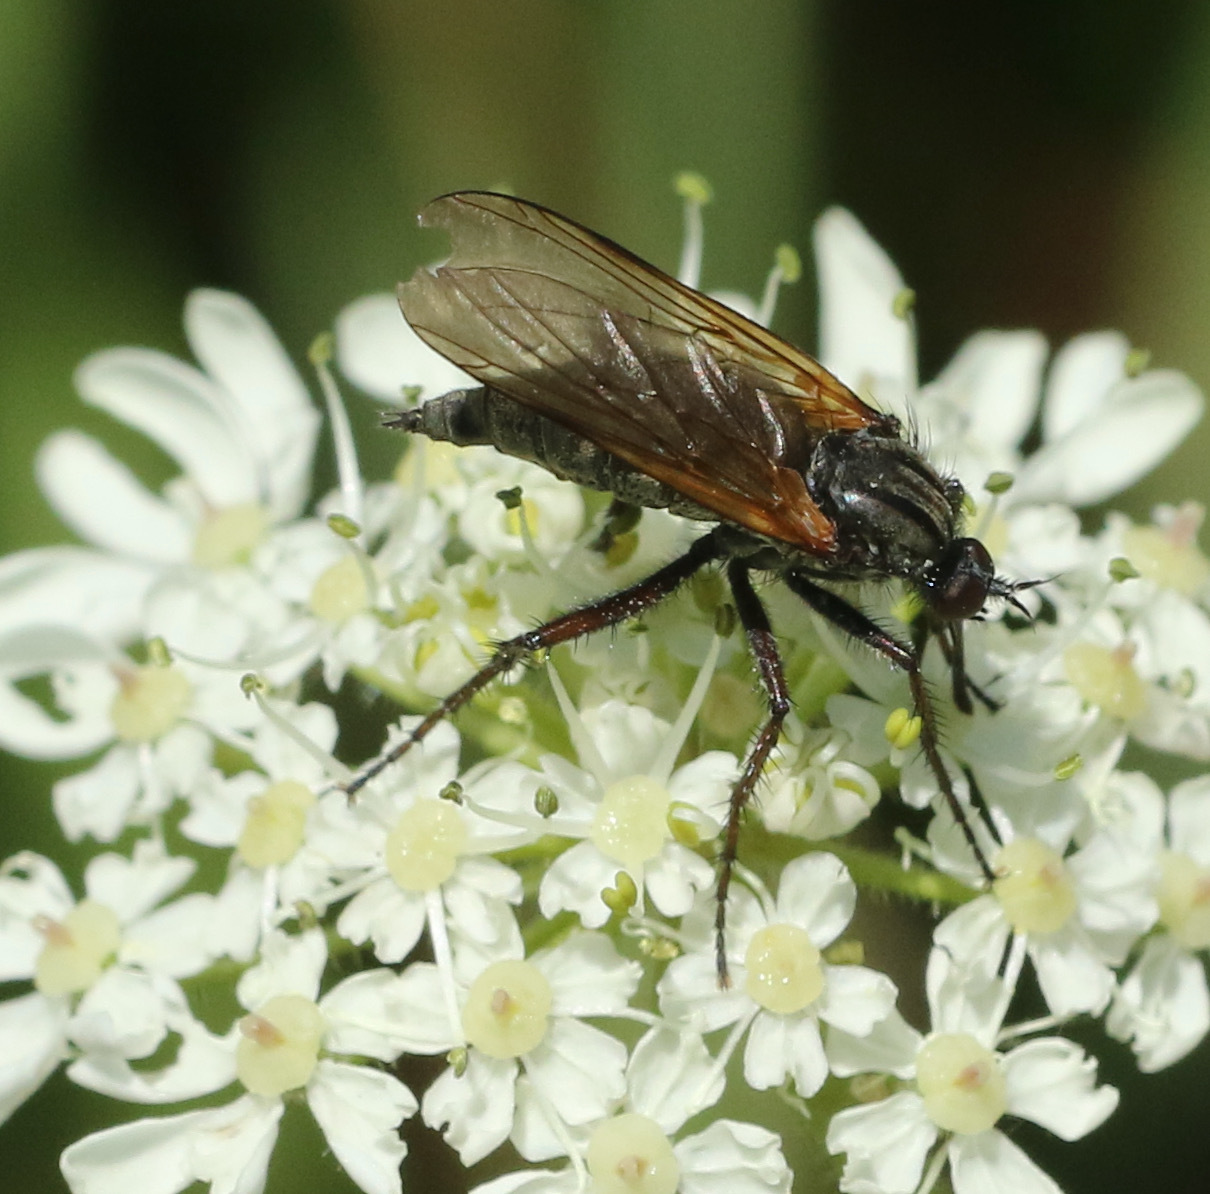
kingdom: Animalia
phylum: Arthropoda
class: Insecta
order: Diptera
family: Empididae
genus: Empis
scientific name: Empis tessellata
